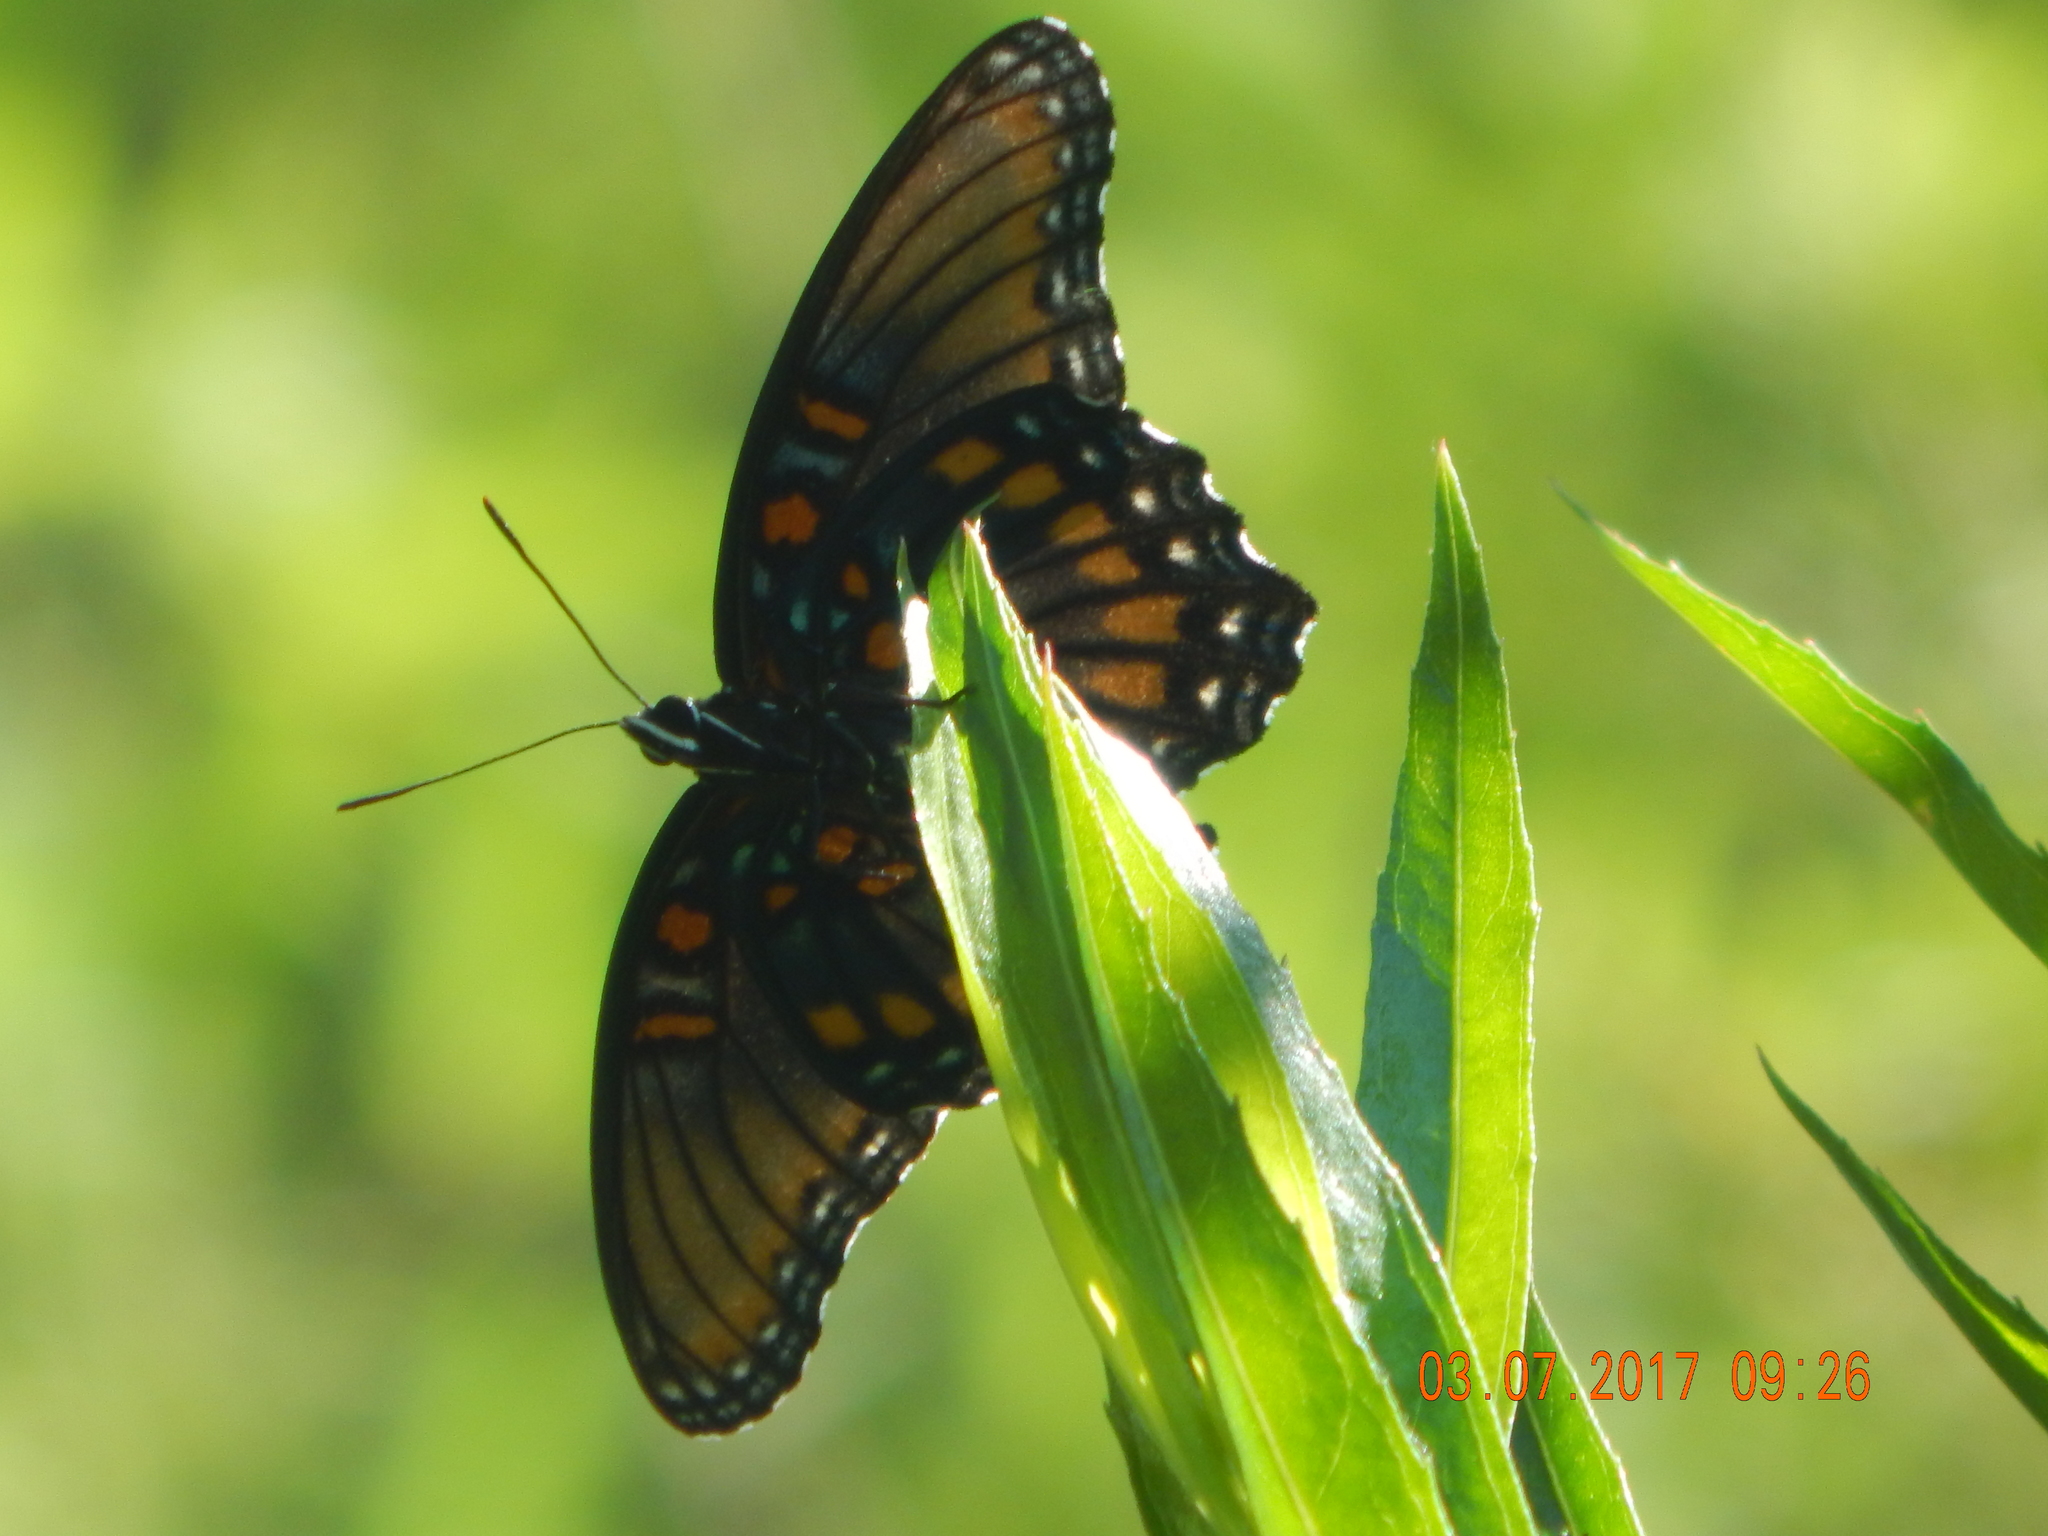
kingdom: Animalia
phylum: Arthropoda
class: Insecta
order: Lepidoptera
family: Nymphalidae
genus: Limenitis
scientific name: Limenitis arthemis
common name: Red-spotted admiral
